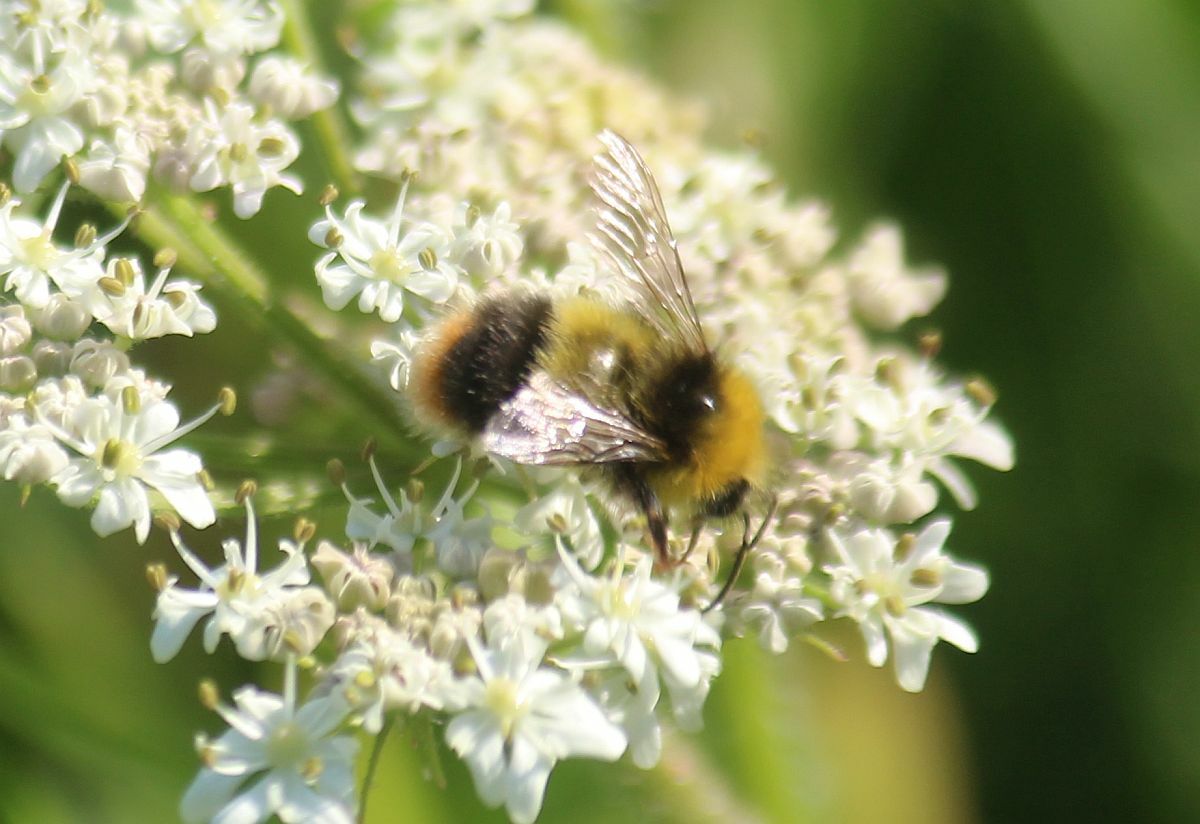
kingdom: Animalia
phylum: Arthropoda
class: Insecta
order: Hymenoptera
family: Apidae
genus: Bombus
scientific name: Bombus pratorum
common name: Early humble-bee
